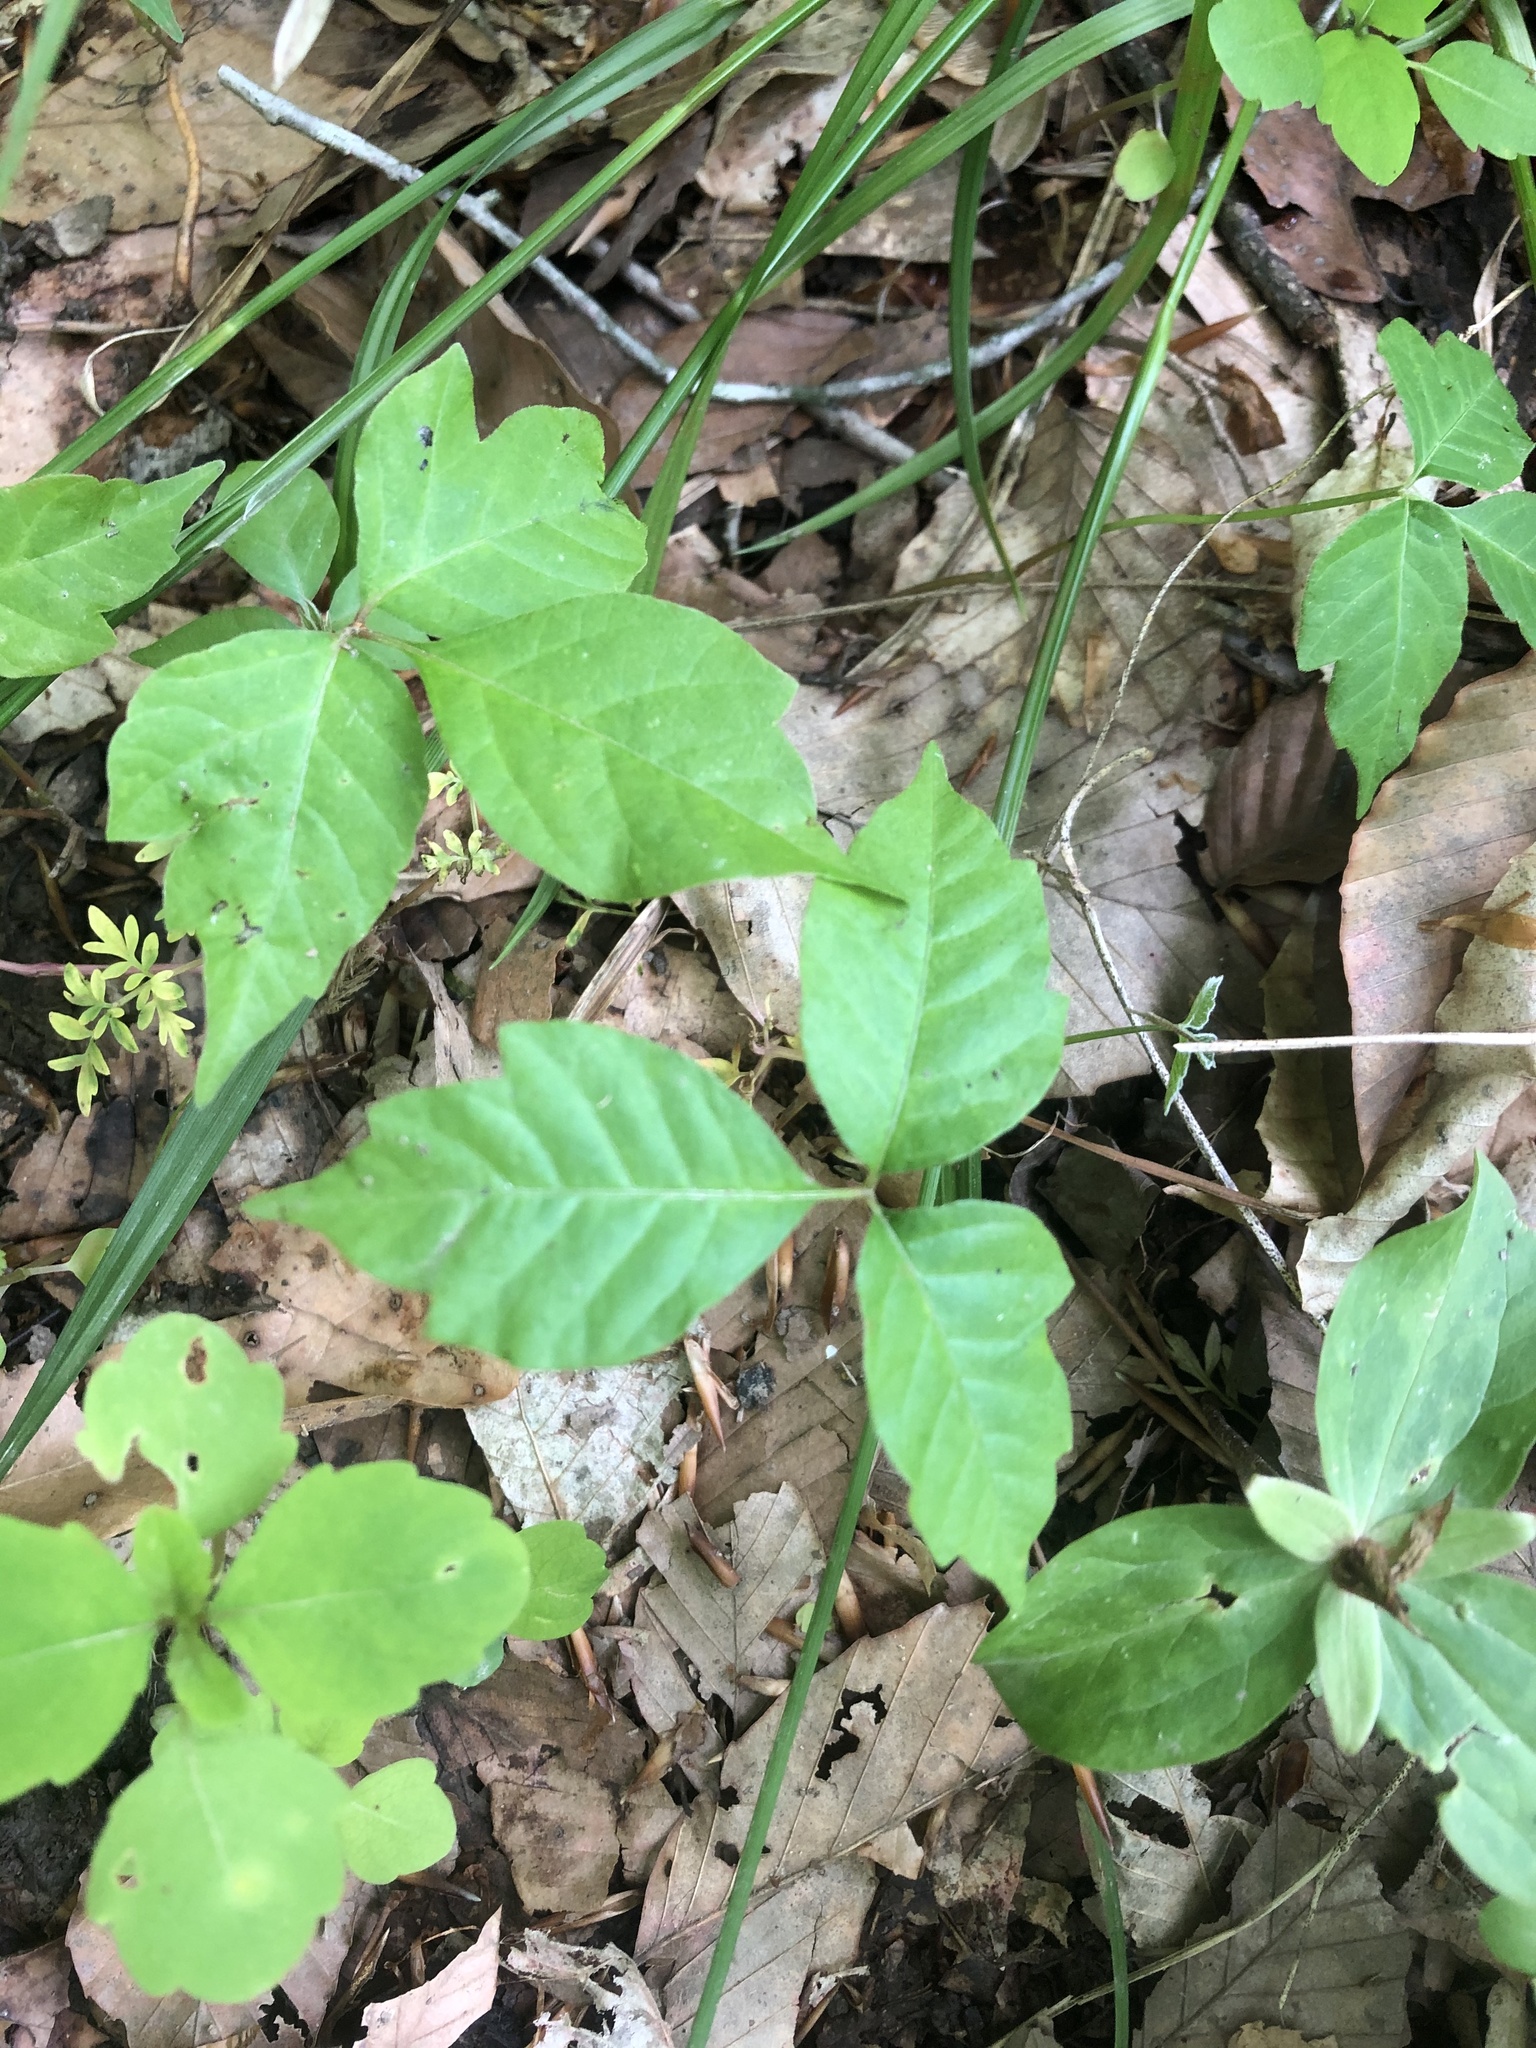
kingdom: Plantae
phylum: Tracheophyta
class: Magnoliopsida
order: Sapindales
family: Anacardiaceae
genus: Toxicodendron
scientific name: Toxicodendron radicans
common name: Poison ivy
